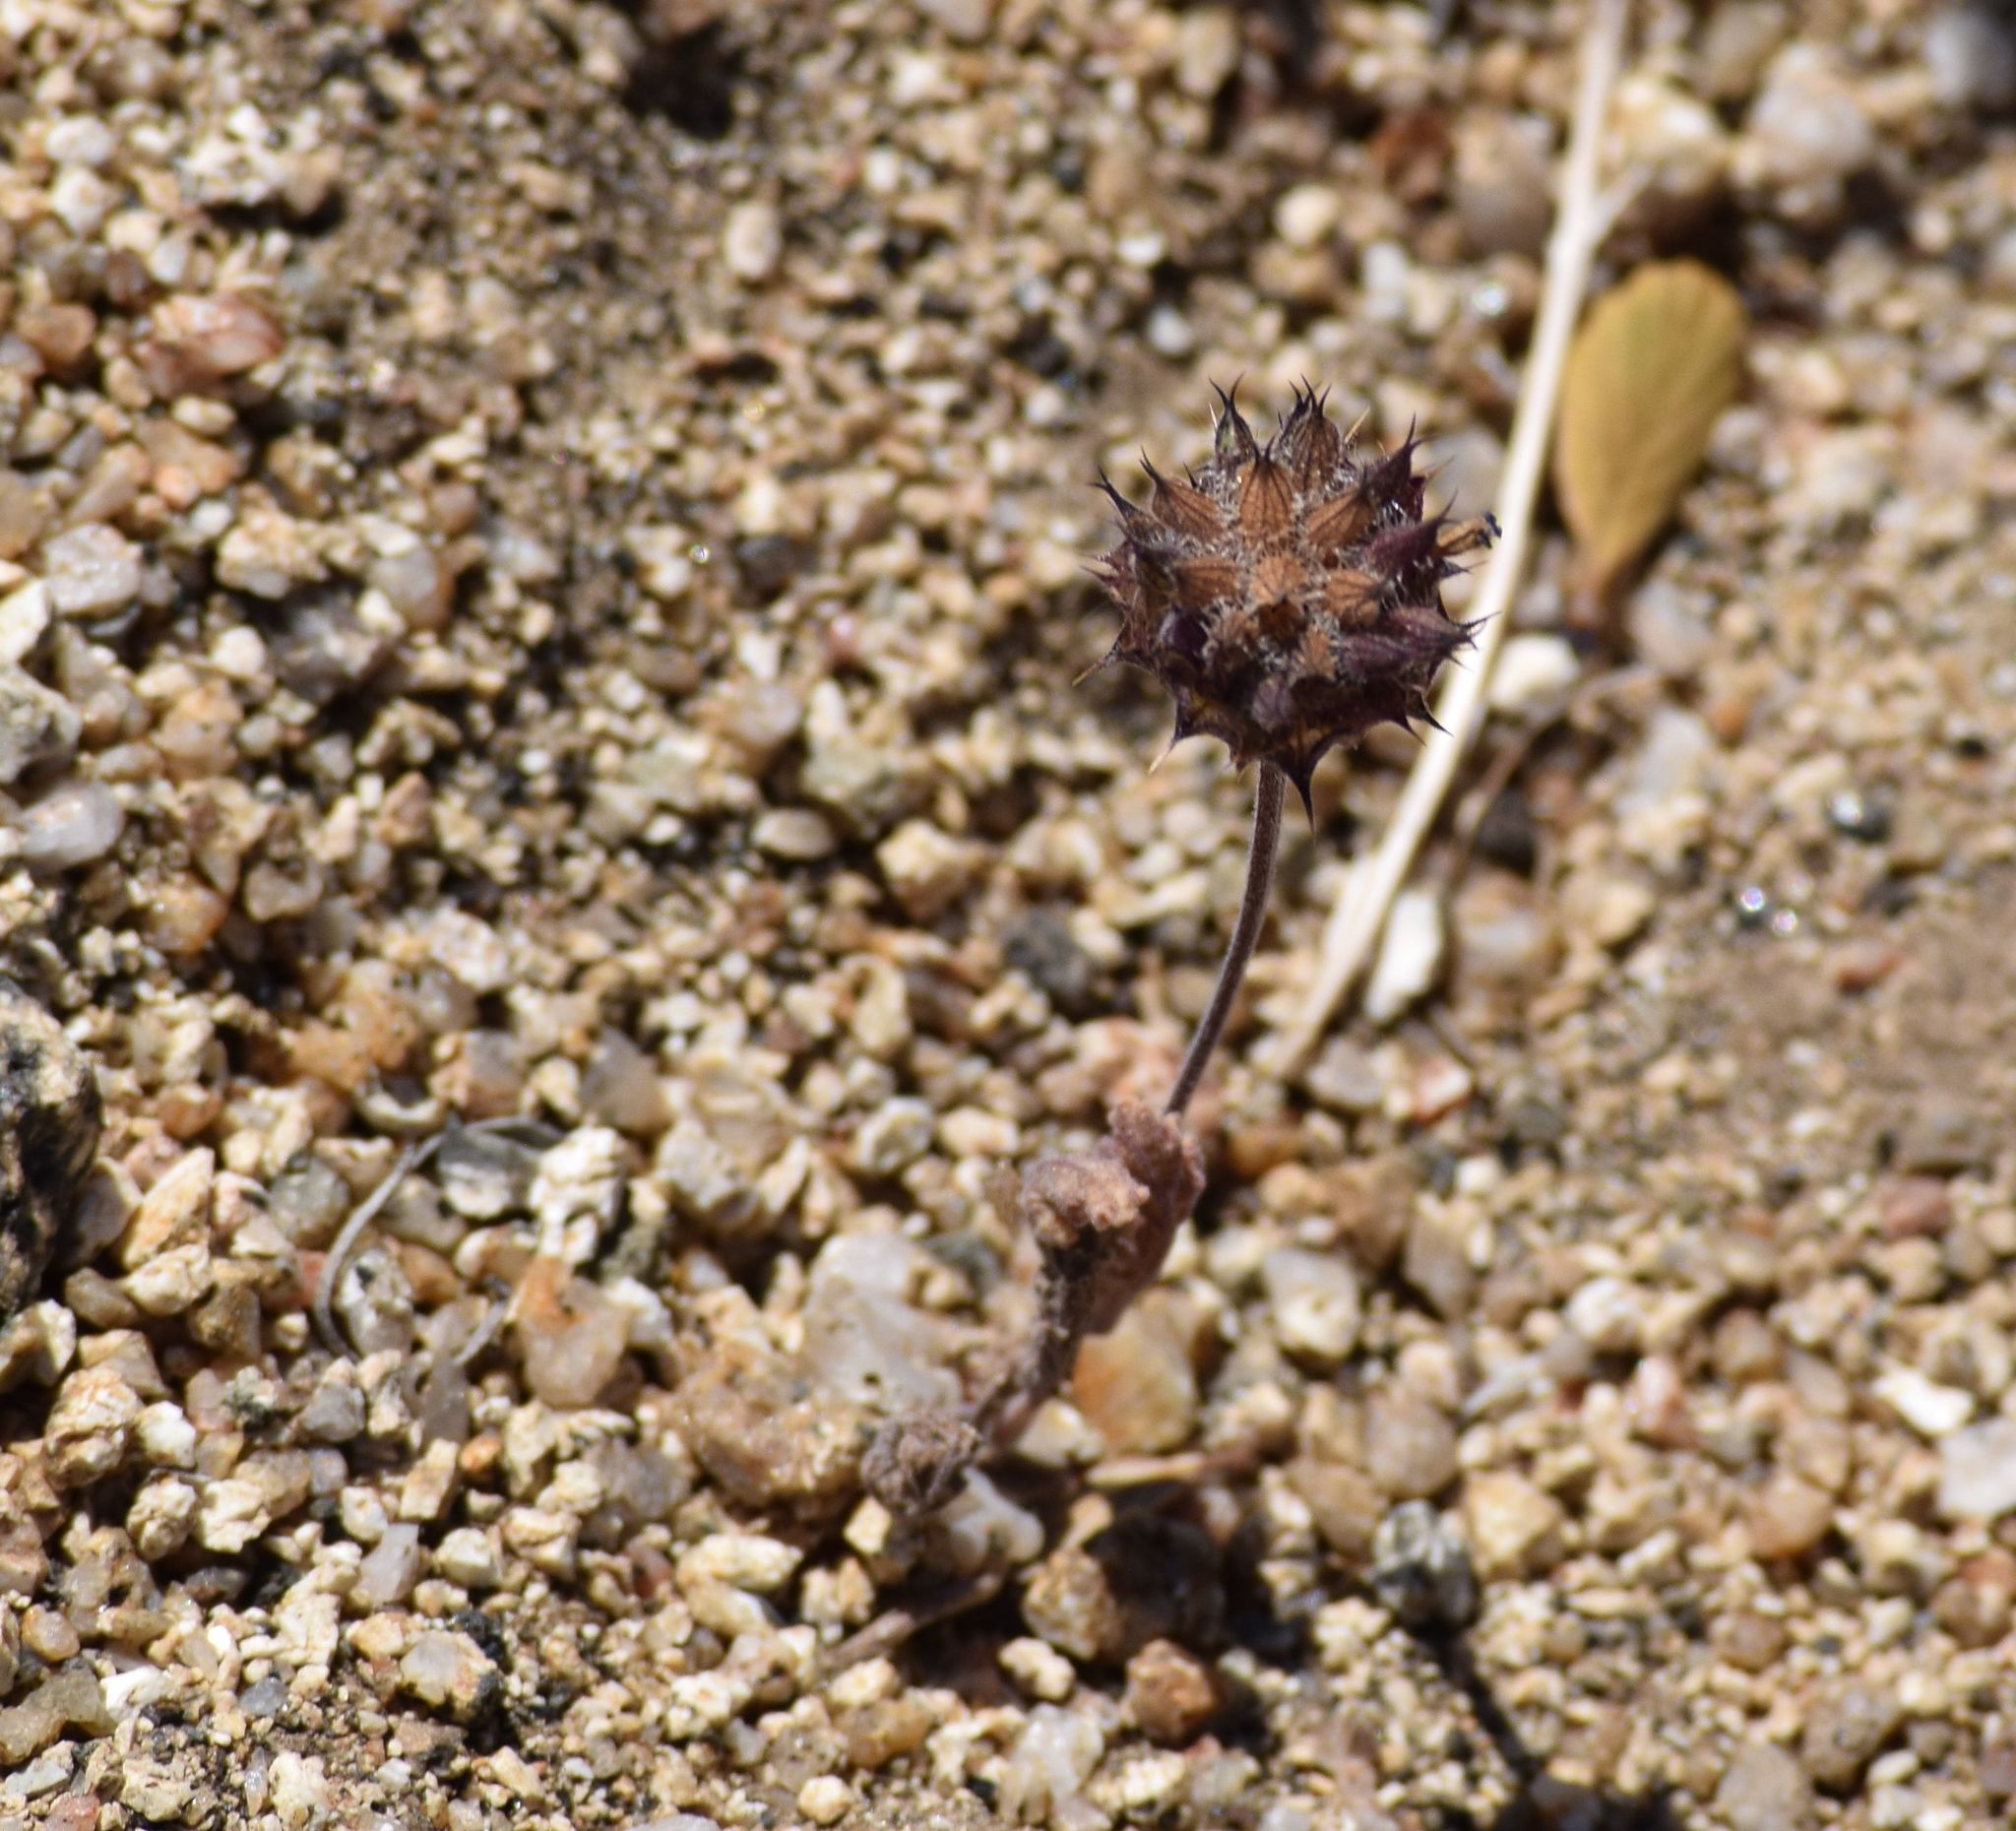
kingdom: Plantae
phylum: Tracheophyta
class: Magnoliopsida
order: Lamiales
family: Lamiaceae
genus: Salvia
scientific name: Salvia columbariae
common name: Chia
